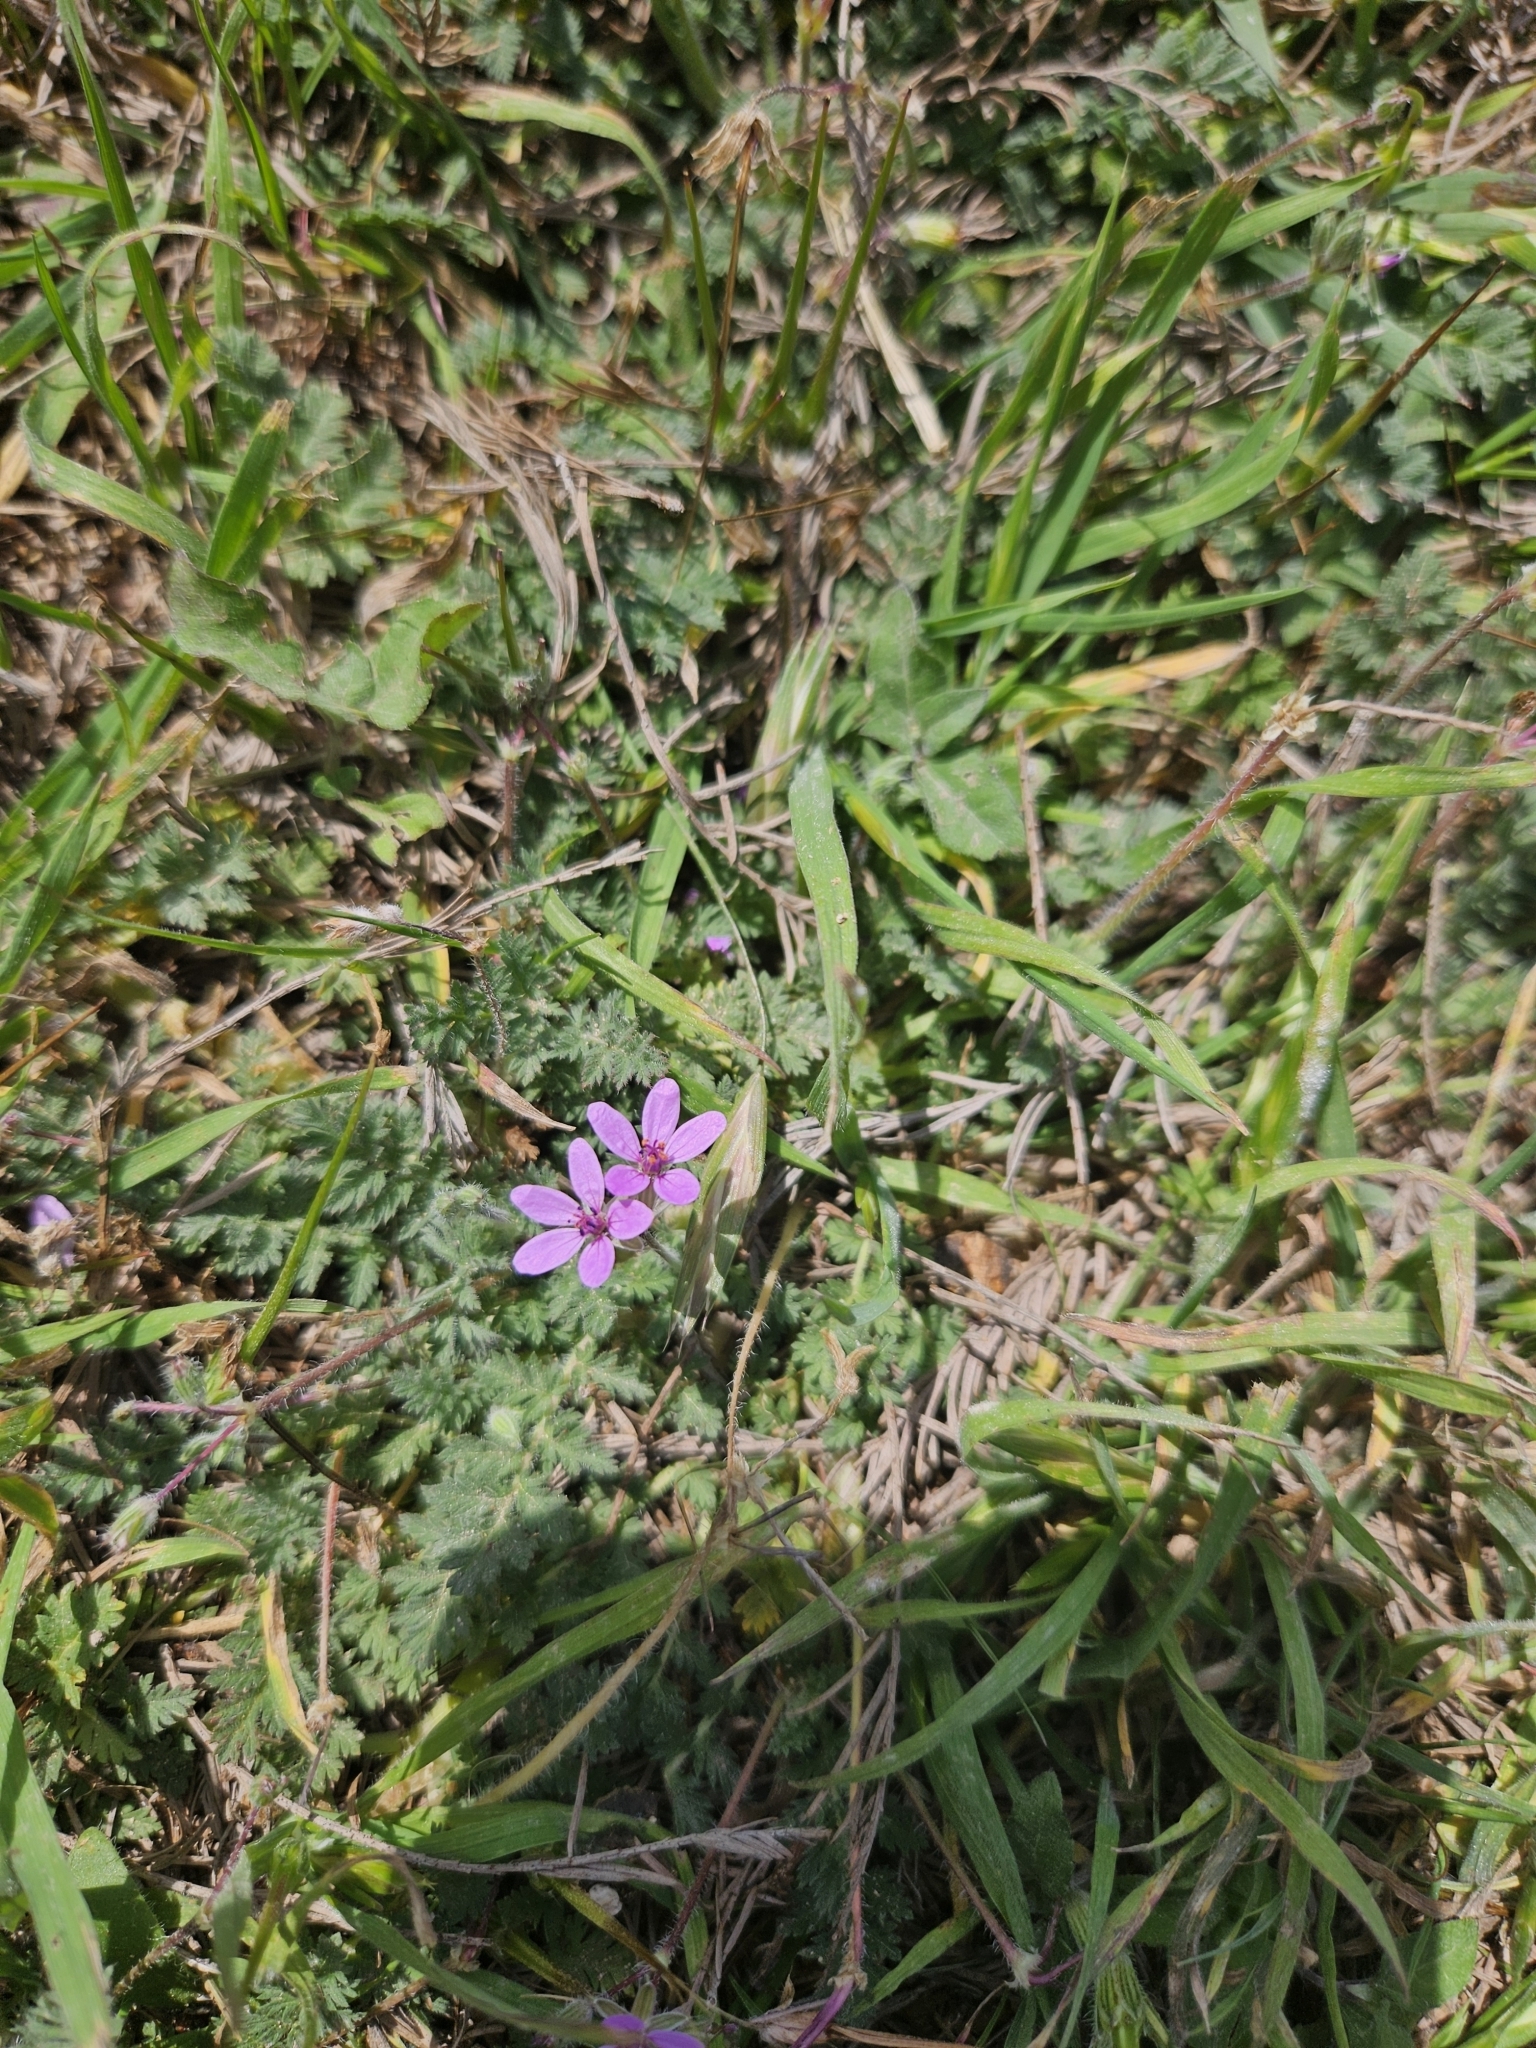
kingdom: Plantae
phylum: Tracheophyta
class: Magnoliopsida
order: Geraniales
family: Geraniaceae
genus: Erodium
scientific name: Erodium cicutarium
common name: Common stork's-bill
